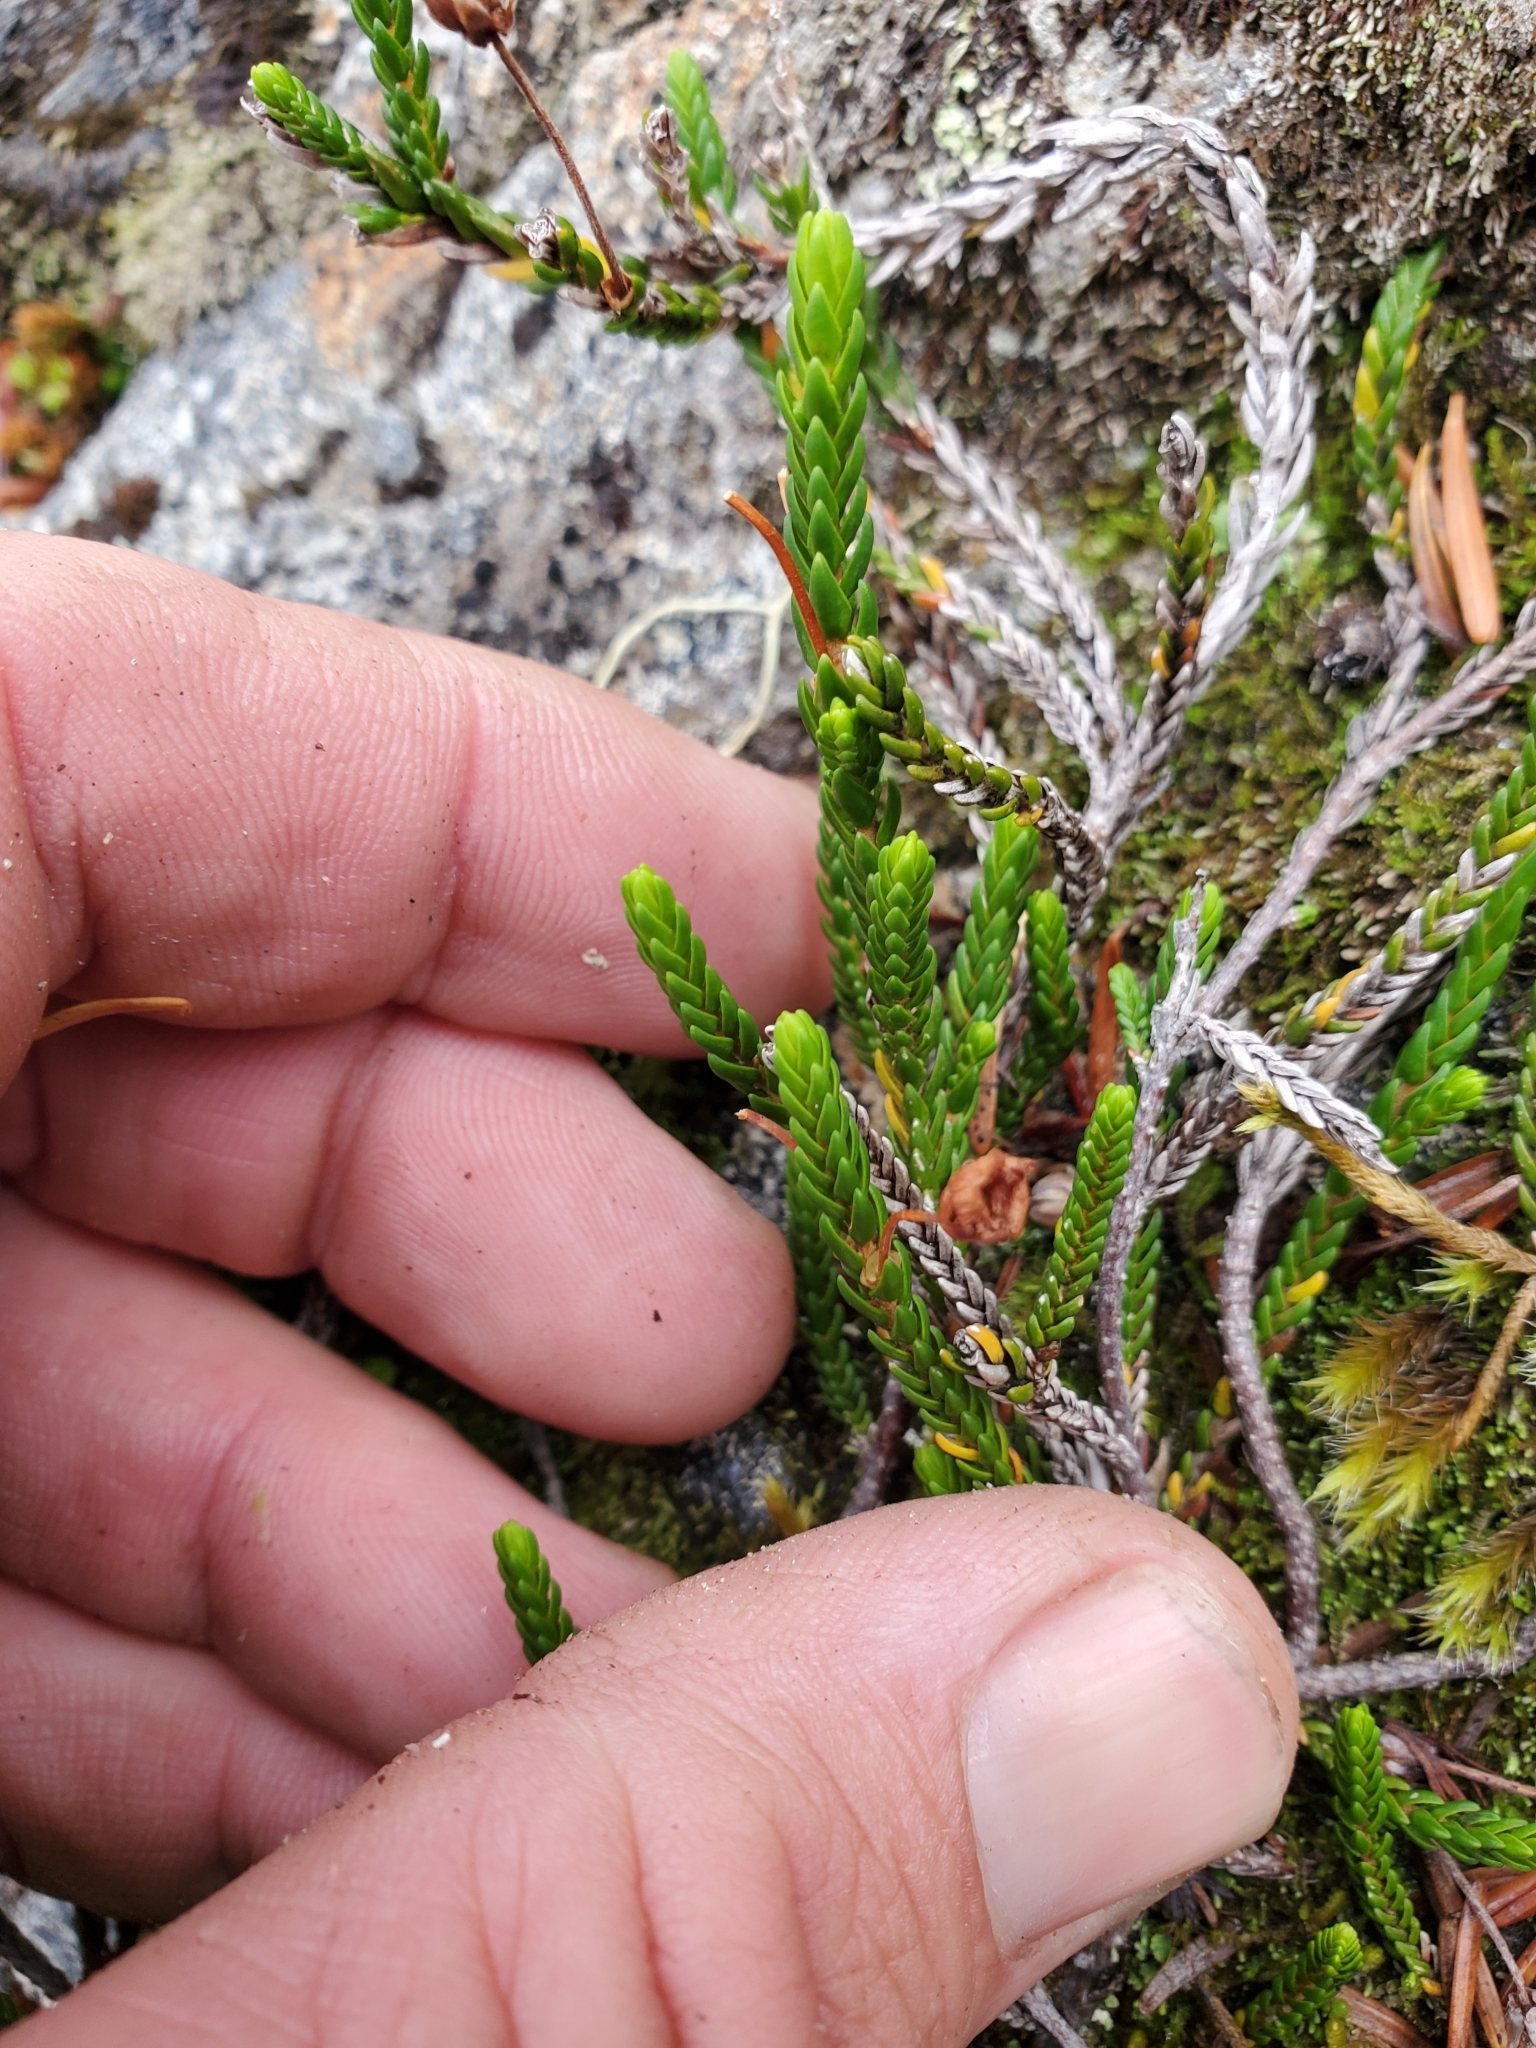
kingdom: Plantae
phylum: Tracheophyta
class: Magnoliopsida
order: Ericales
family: Ericaceae
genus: Cassiope
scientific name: Cassiope mertensiana
